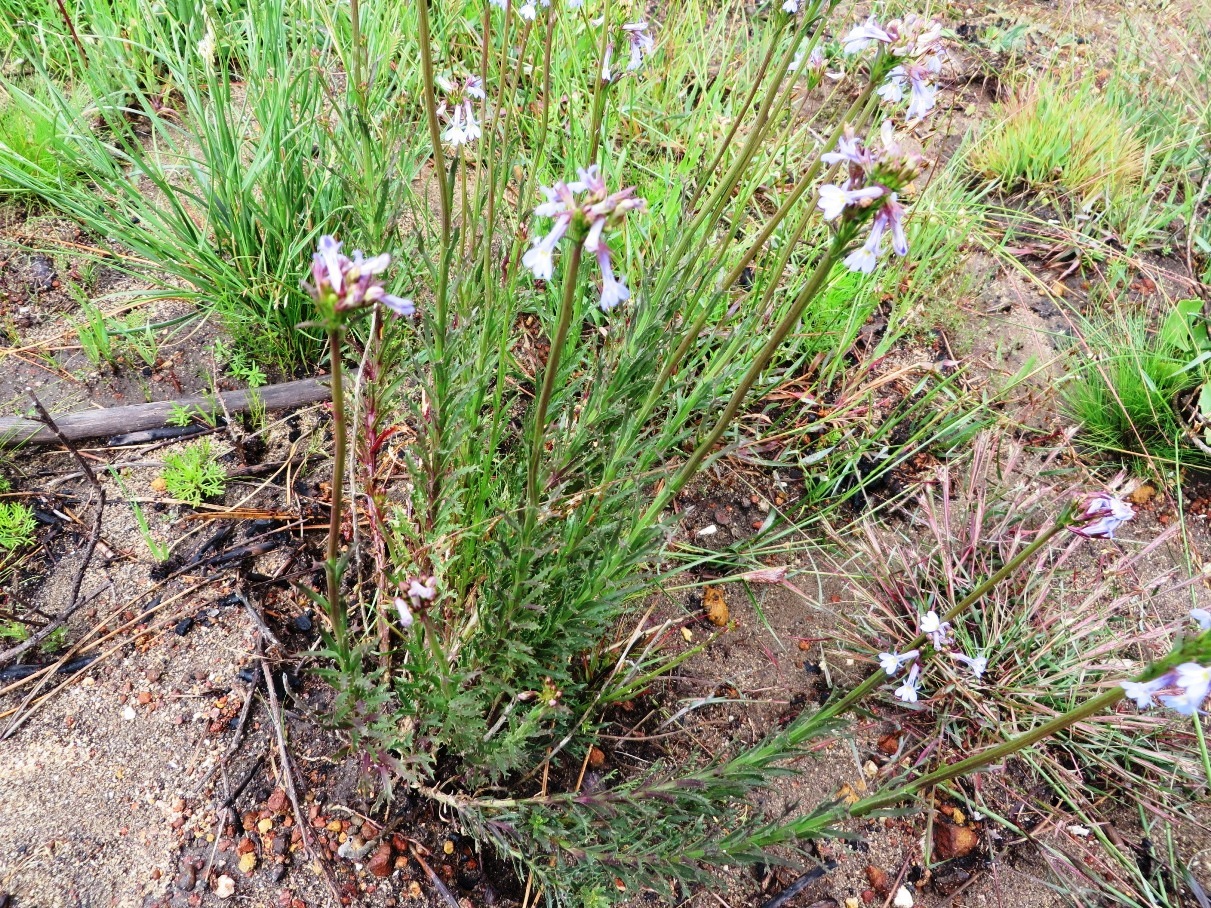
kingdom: Plantae
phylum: Tracheophyta
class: Magnoliopsida
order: Asterales
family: Campanulaceae
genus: Lobelia
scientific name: Lobelia comosa
